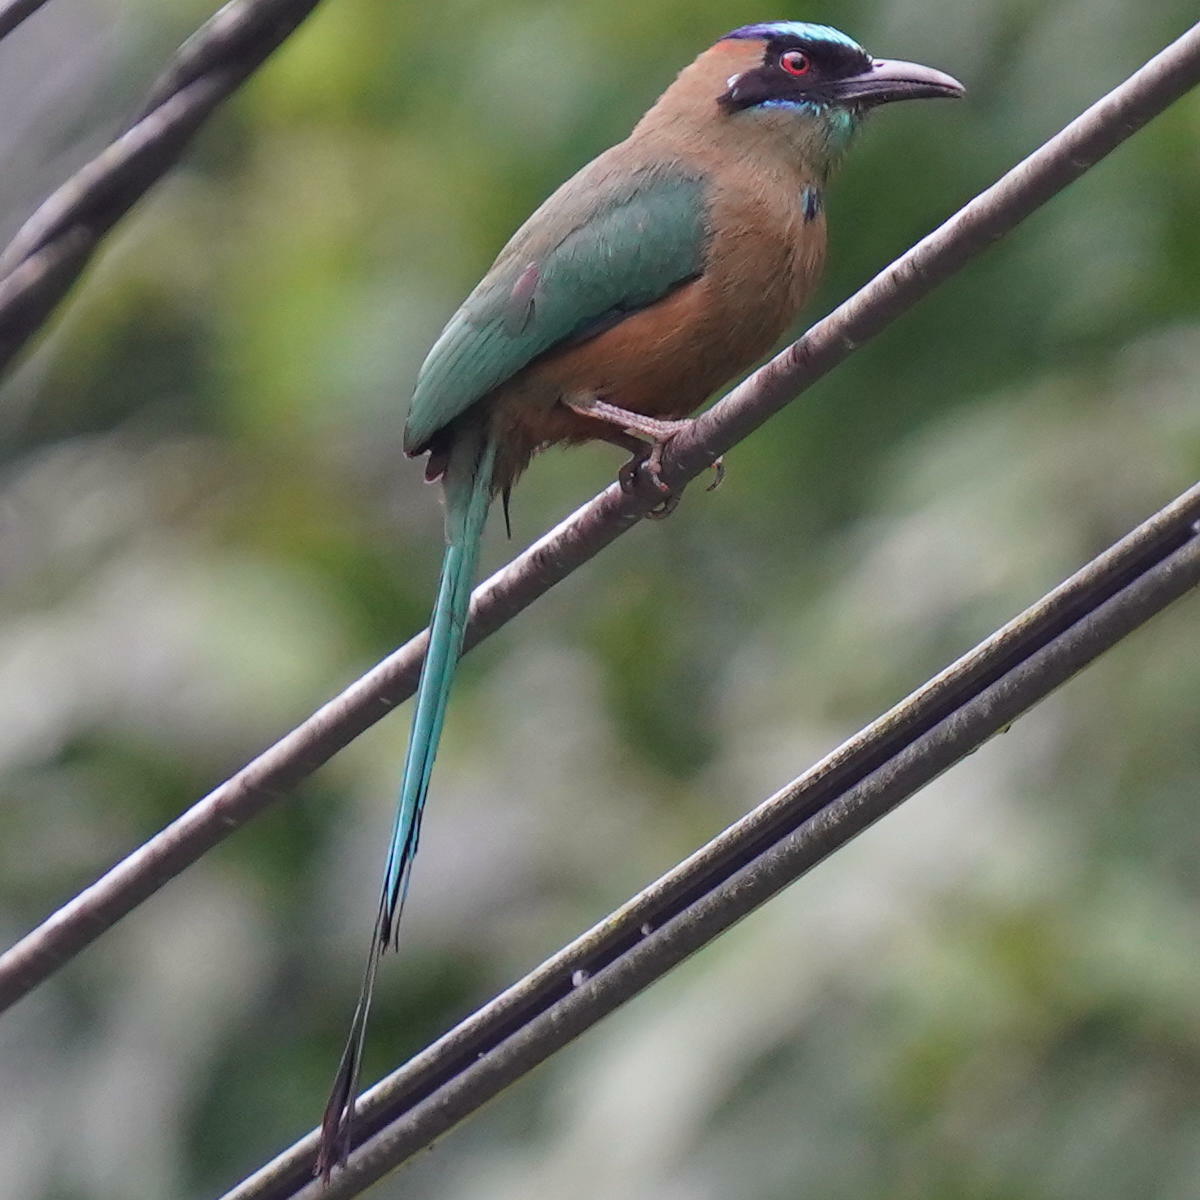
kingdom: Animalia
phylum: Chordata
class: Aves
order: Coraciiformes
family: Momotidae
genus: Momotus
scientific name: Momotus subrufescens
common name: Whooping motmot
